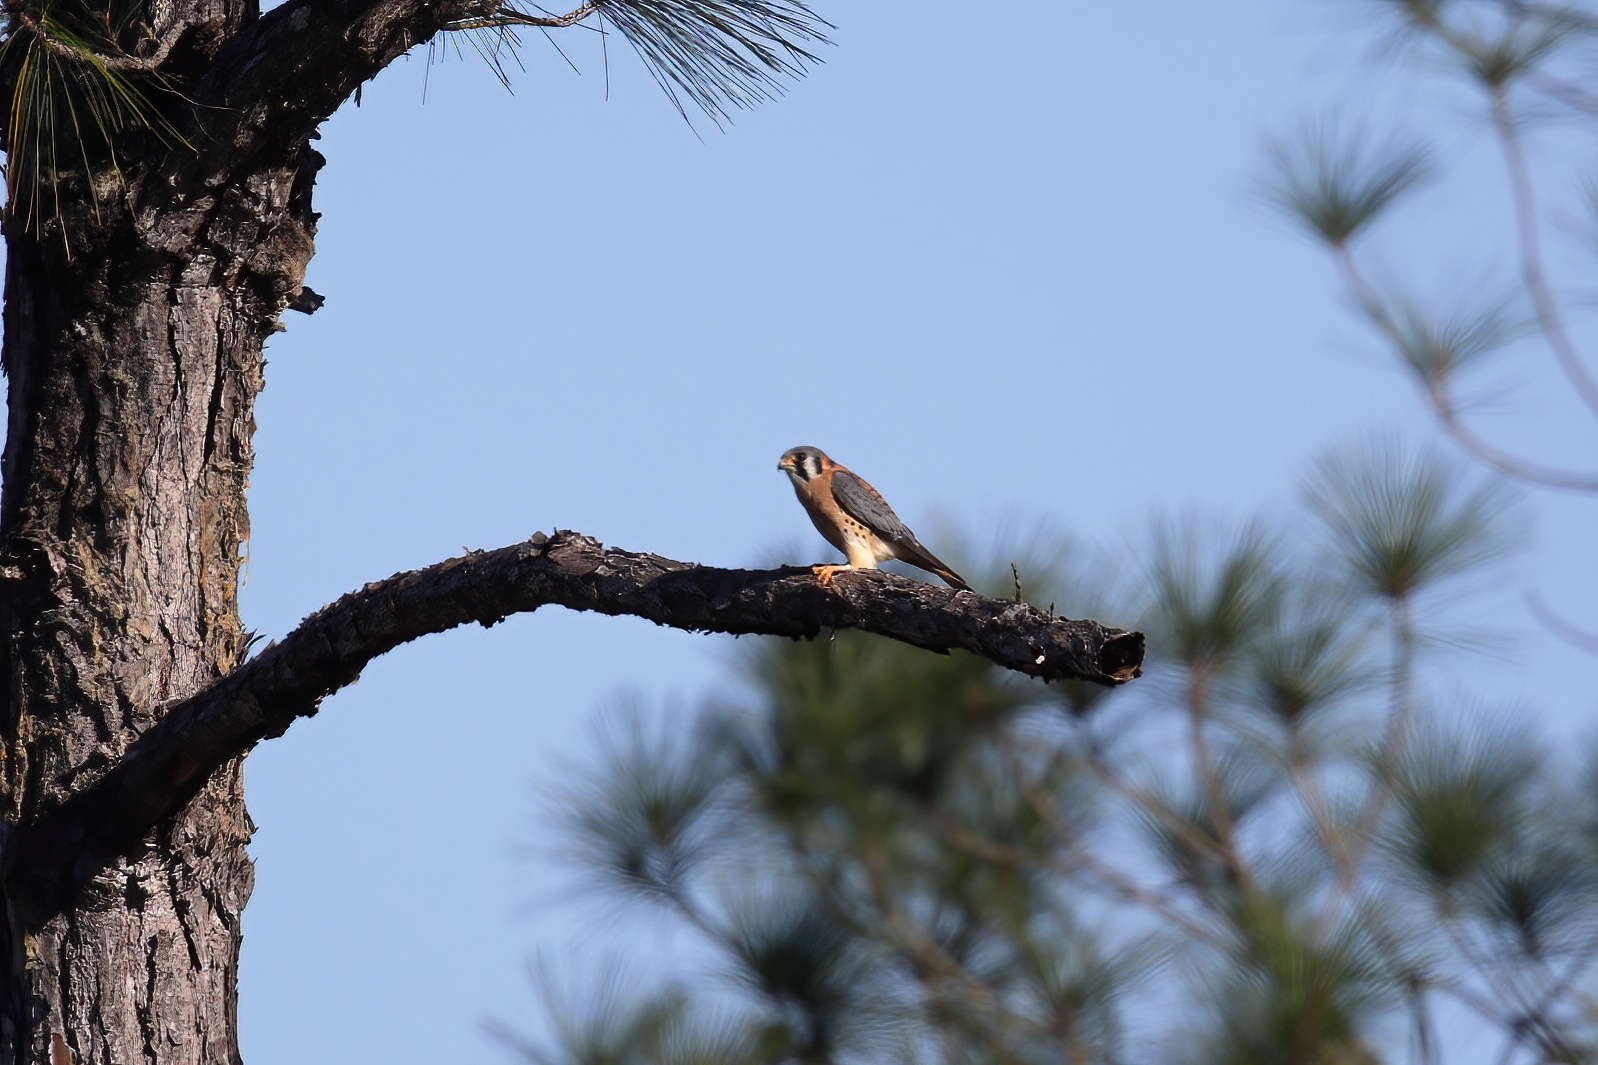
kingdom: Animalia
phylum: Chordata
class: Aves
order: Falconiformes
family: Falconidae
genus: Falco
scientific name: Falco sparverius
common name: American kestrel
